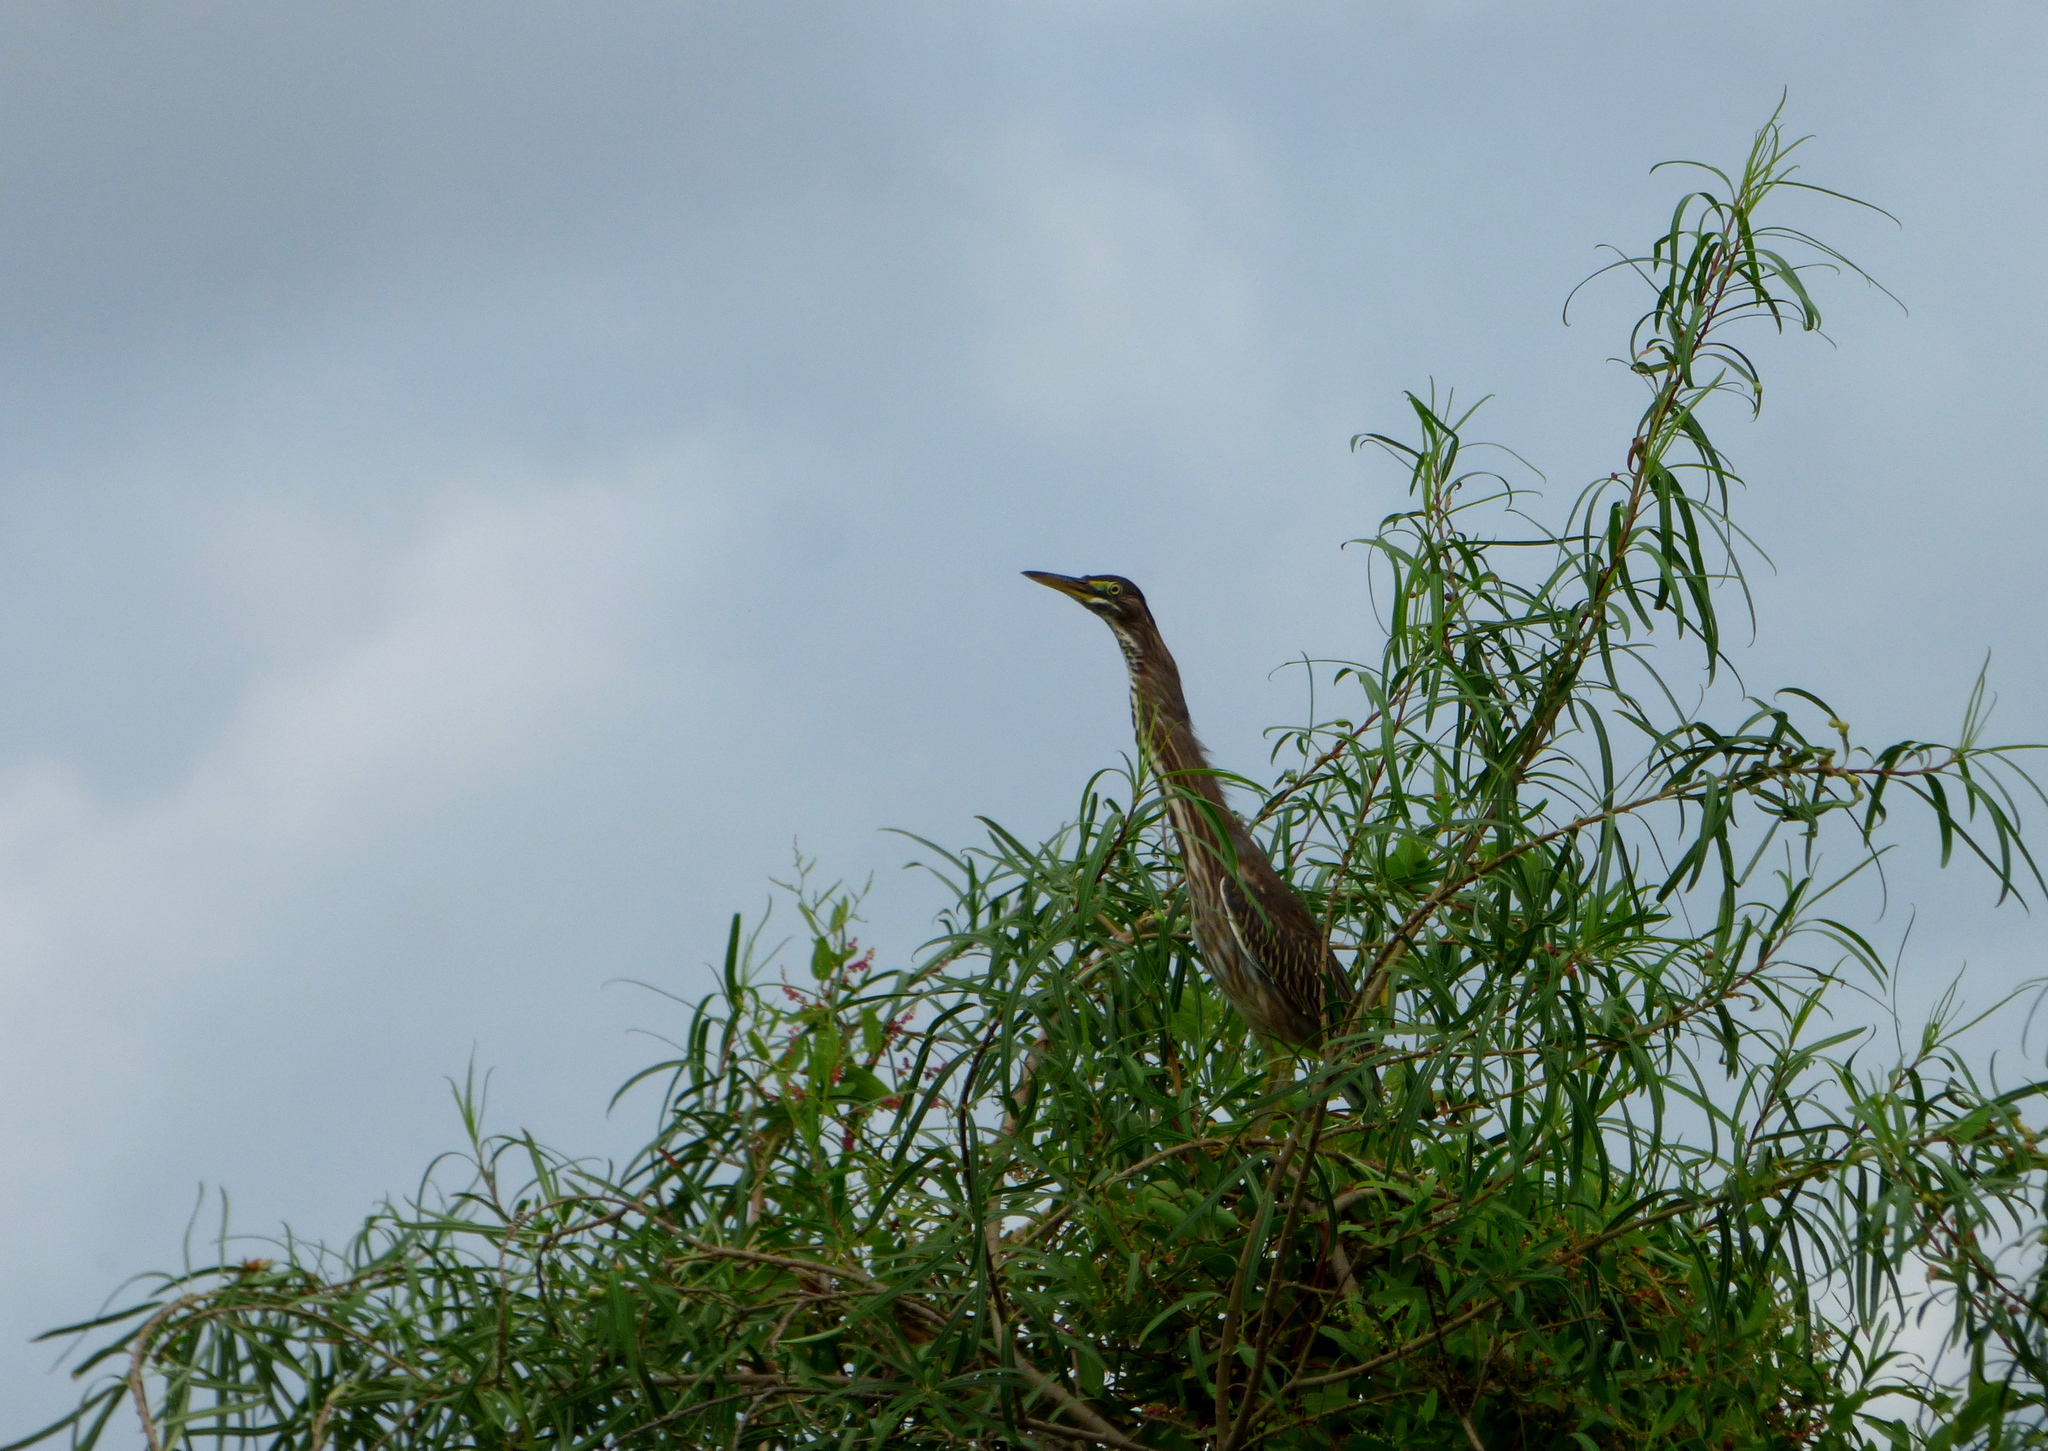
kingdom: Animalia
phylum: Chordata
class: Aves
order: Pelecaniformes
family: Ardeidae
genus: Butorides
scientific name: Butorides striata
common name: Striated heron
